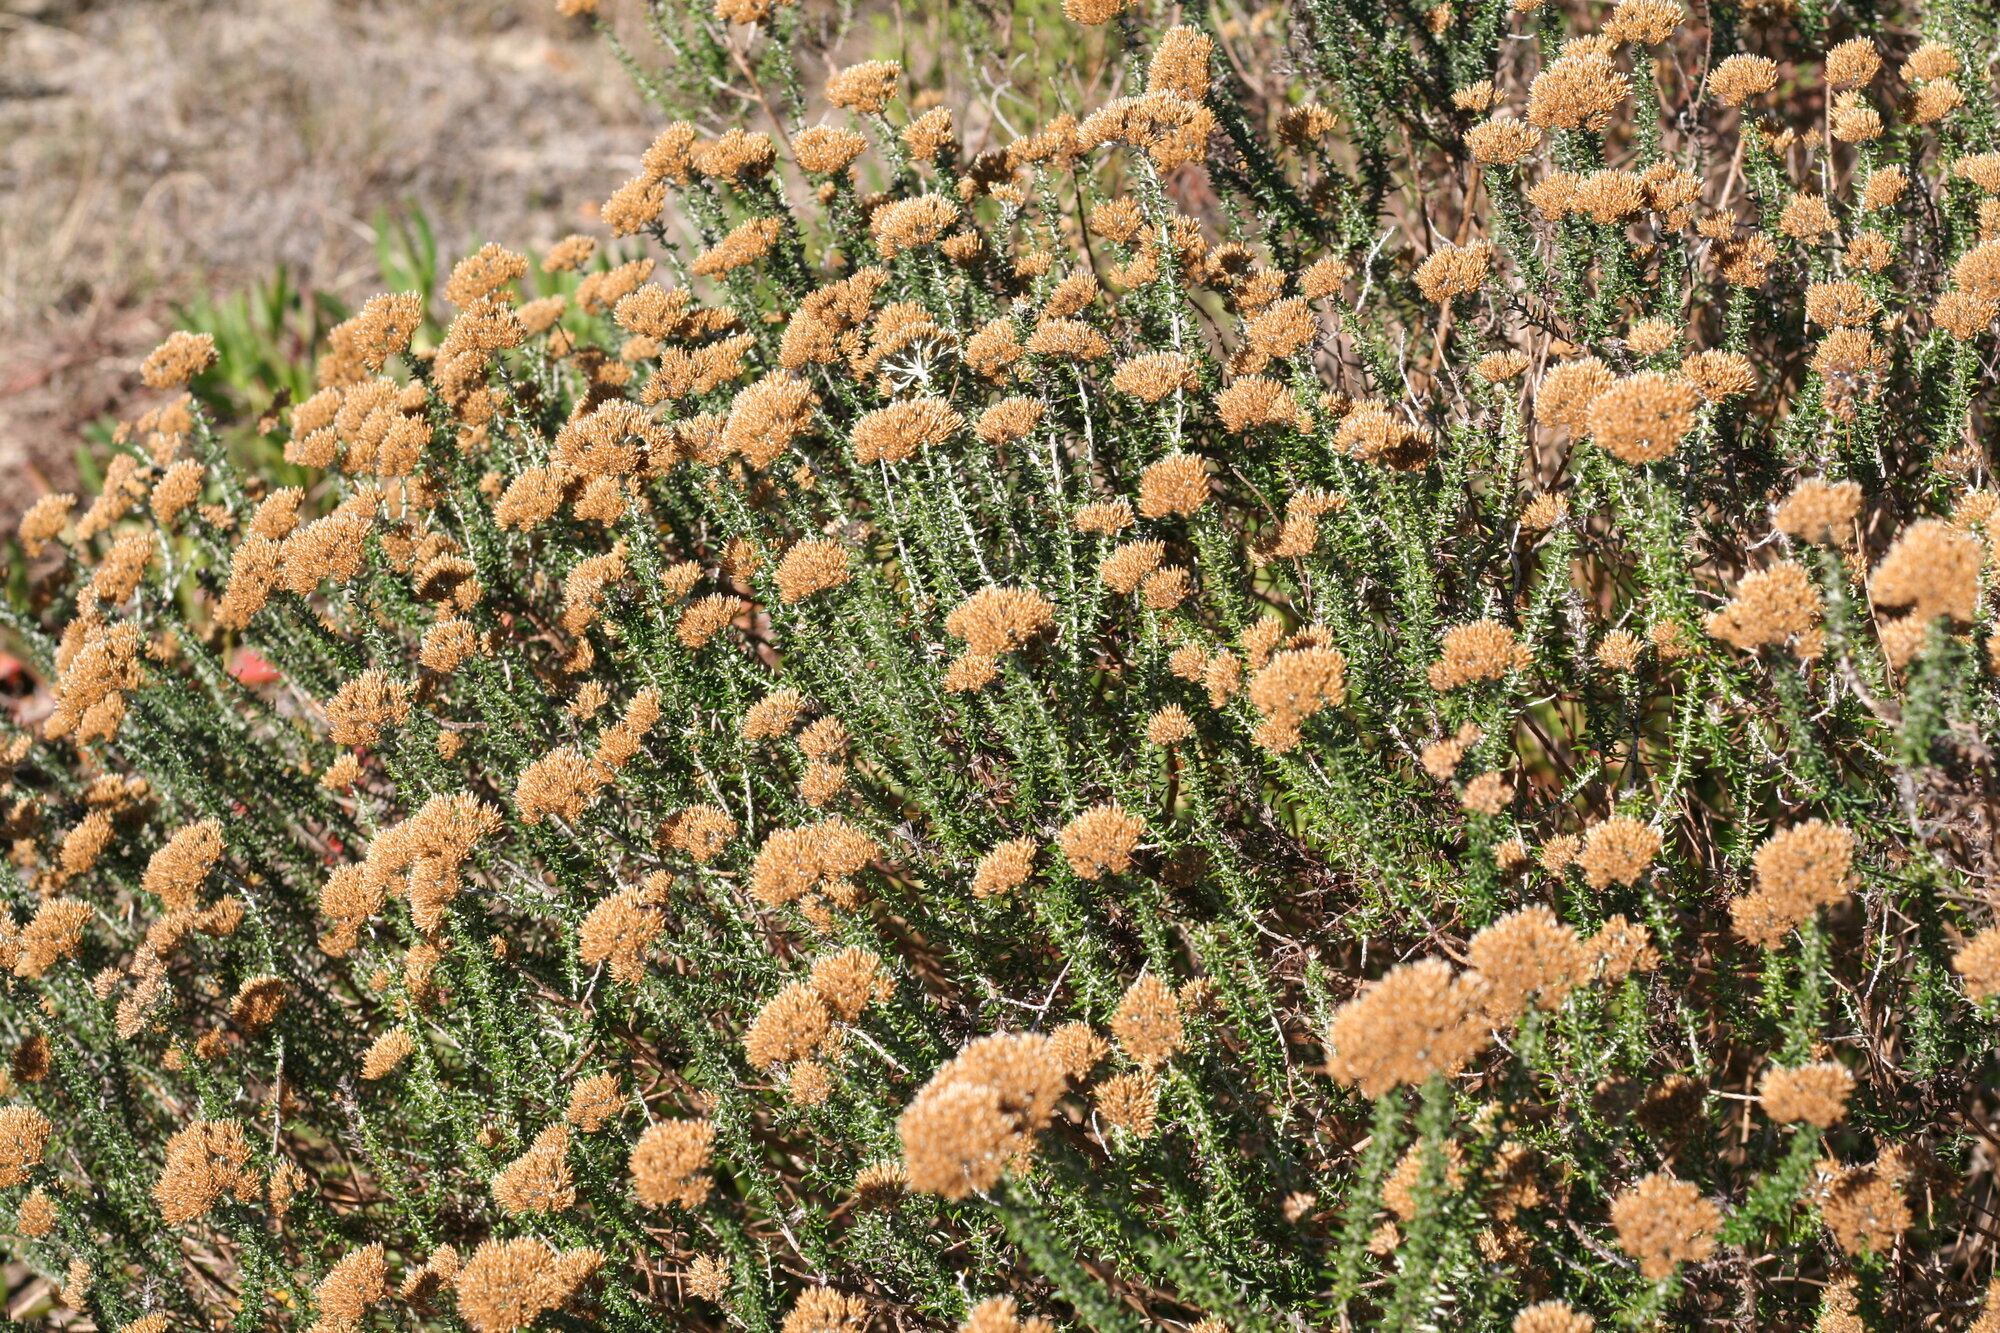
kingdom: Plantae
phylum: Tracheophyta
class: Magnoliopsida
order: Asterales
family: Asteraceae
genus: Metalasia
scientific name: Metalasia muricata
